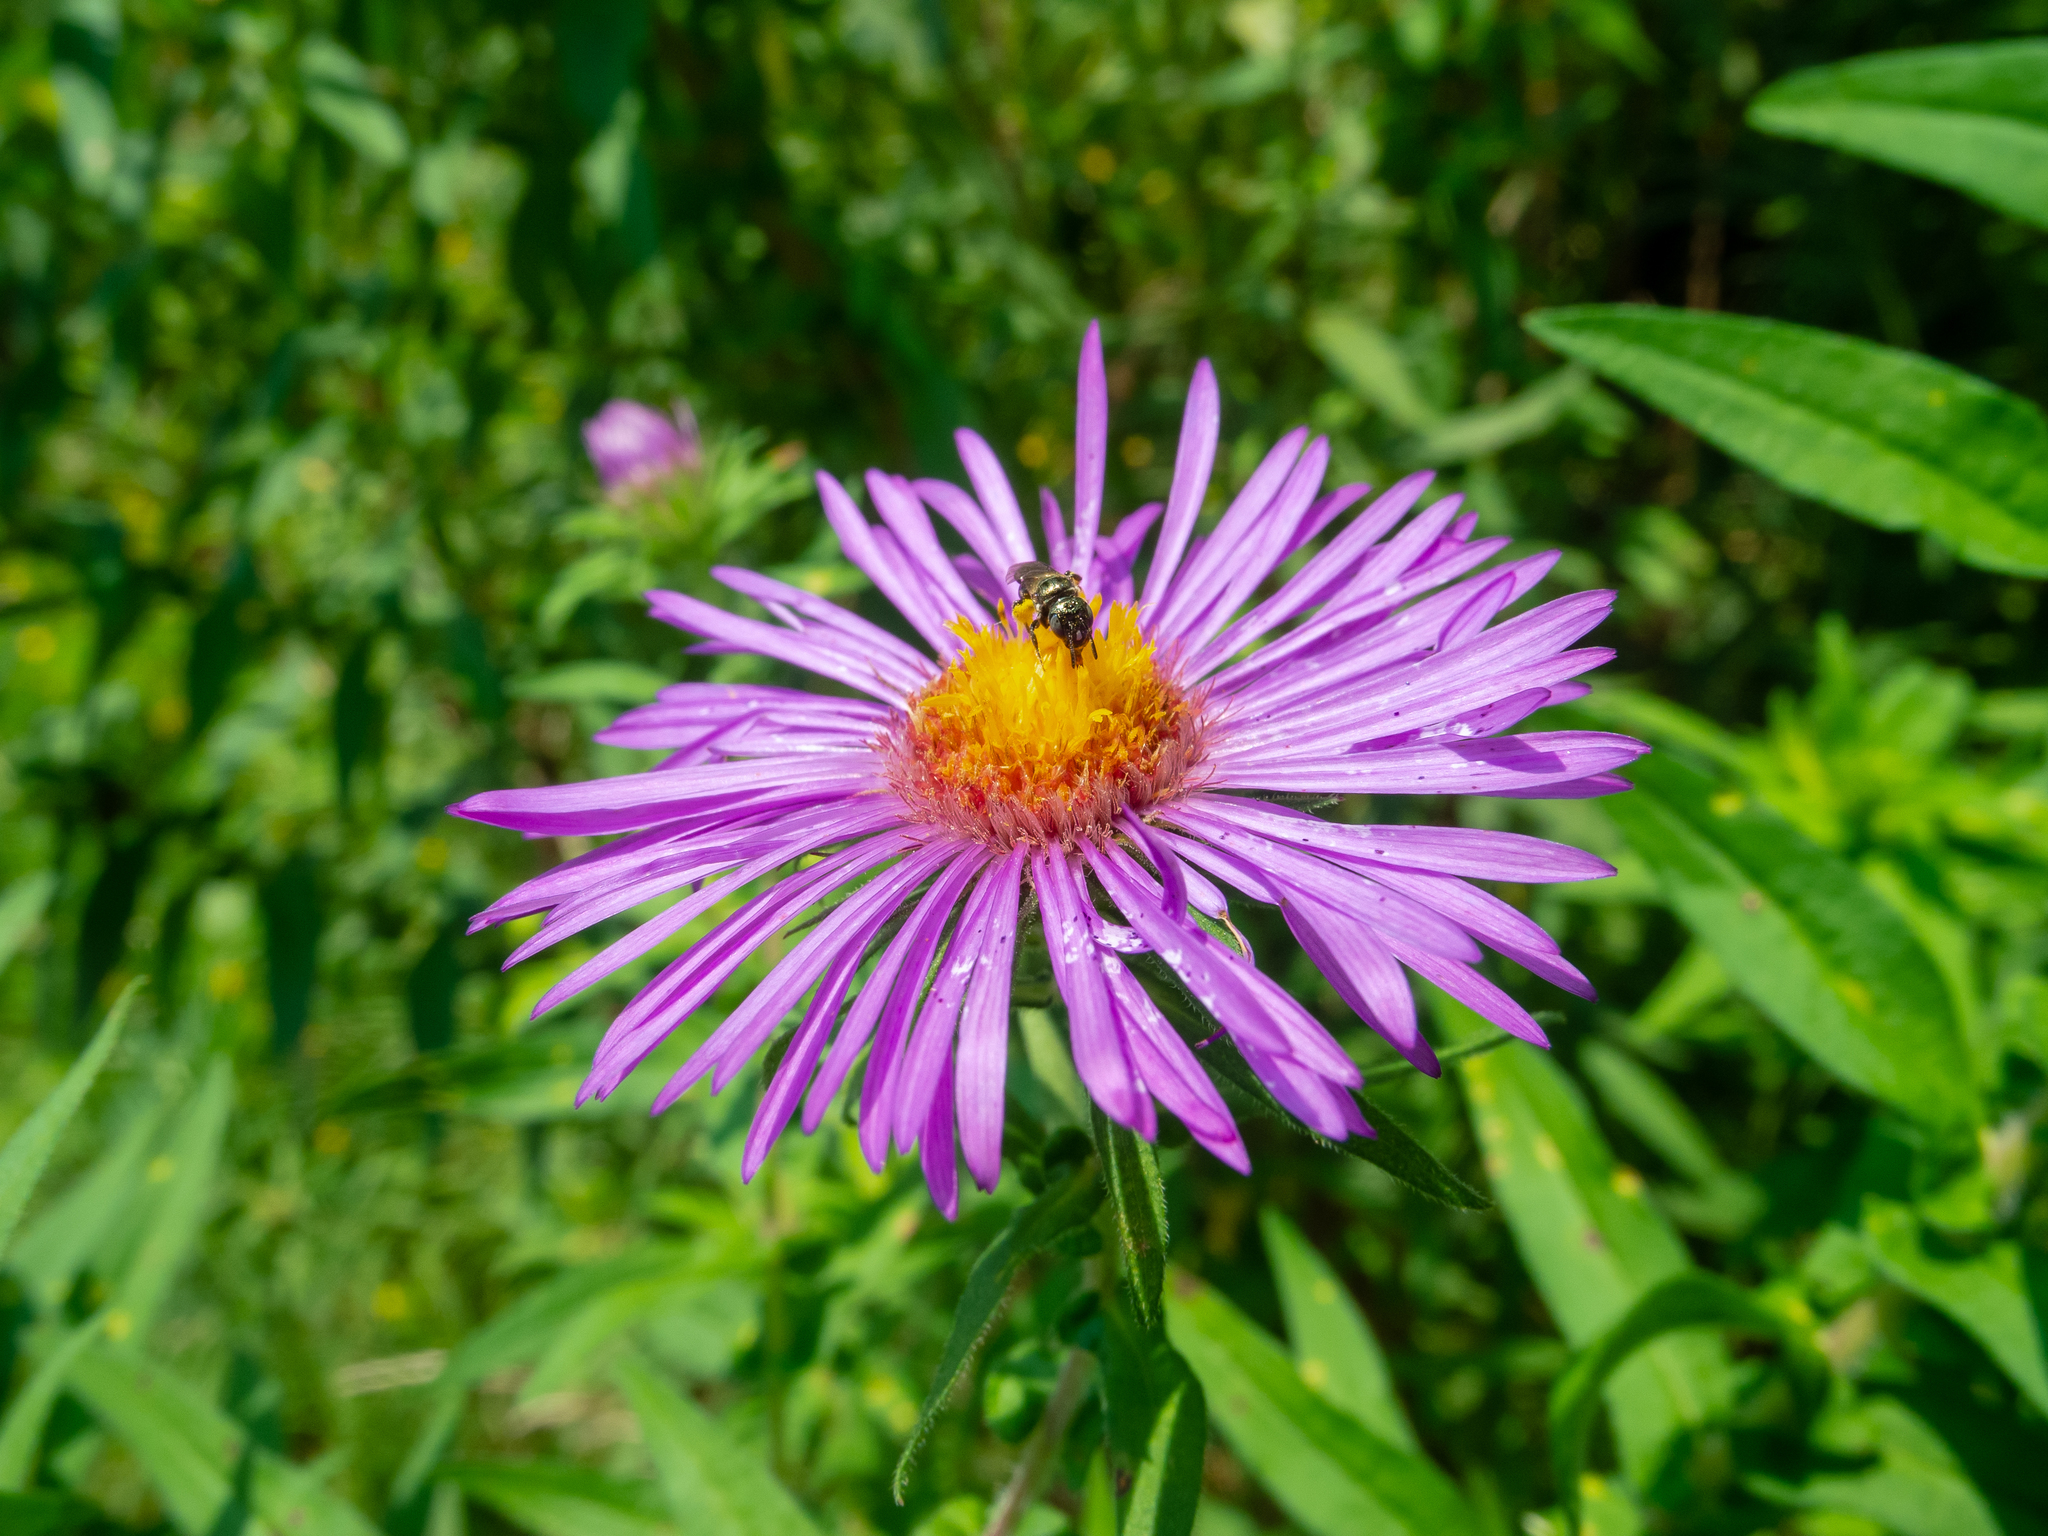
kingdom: Plantae
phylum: Tracheophyta
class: Magnoliopsida
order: Asterales
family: Asteraceae
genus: Symphyotrichum
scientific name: Symphyotrichum novae-angliae
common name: Michaelmas daisy
